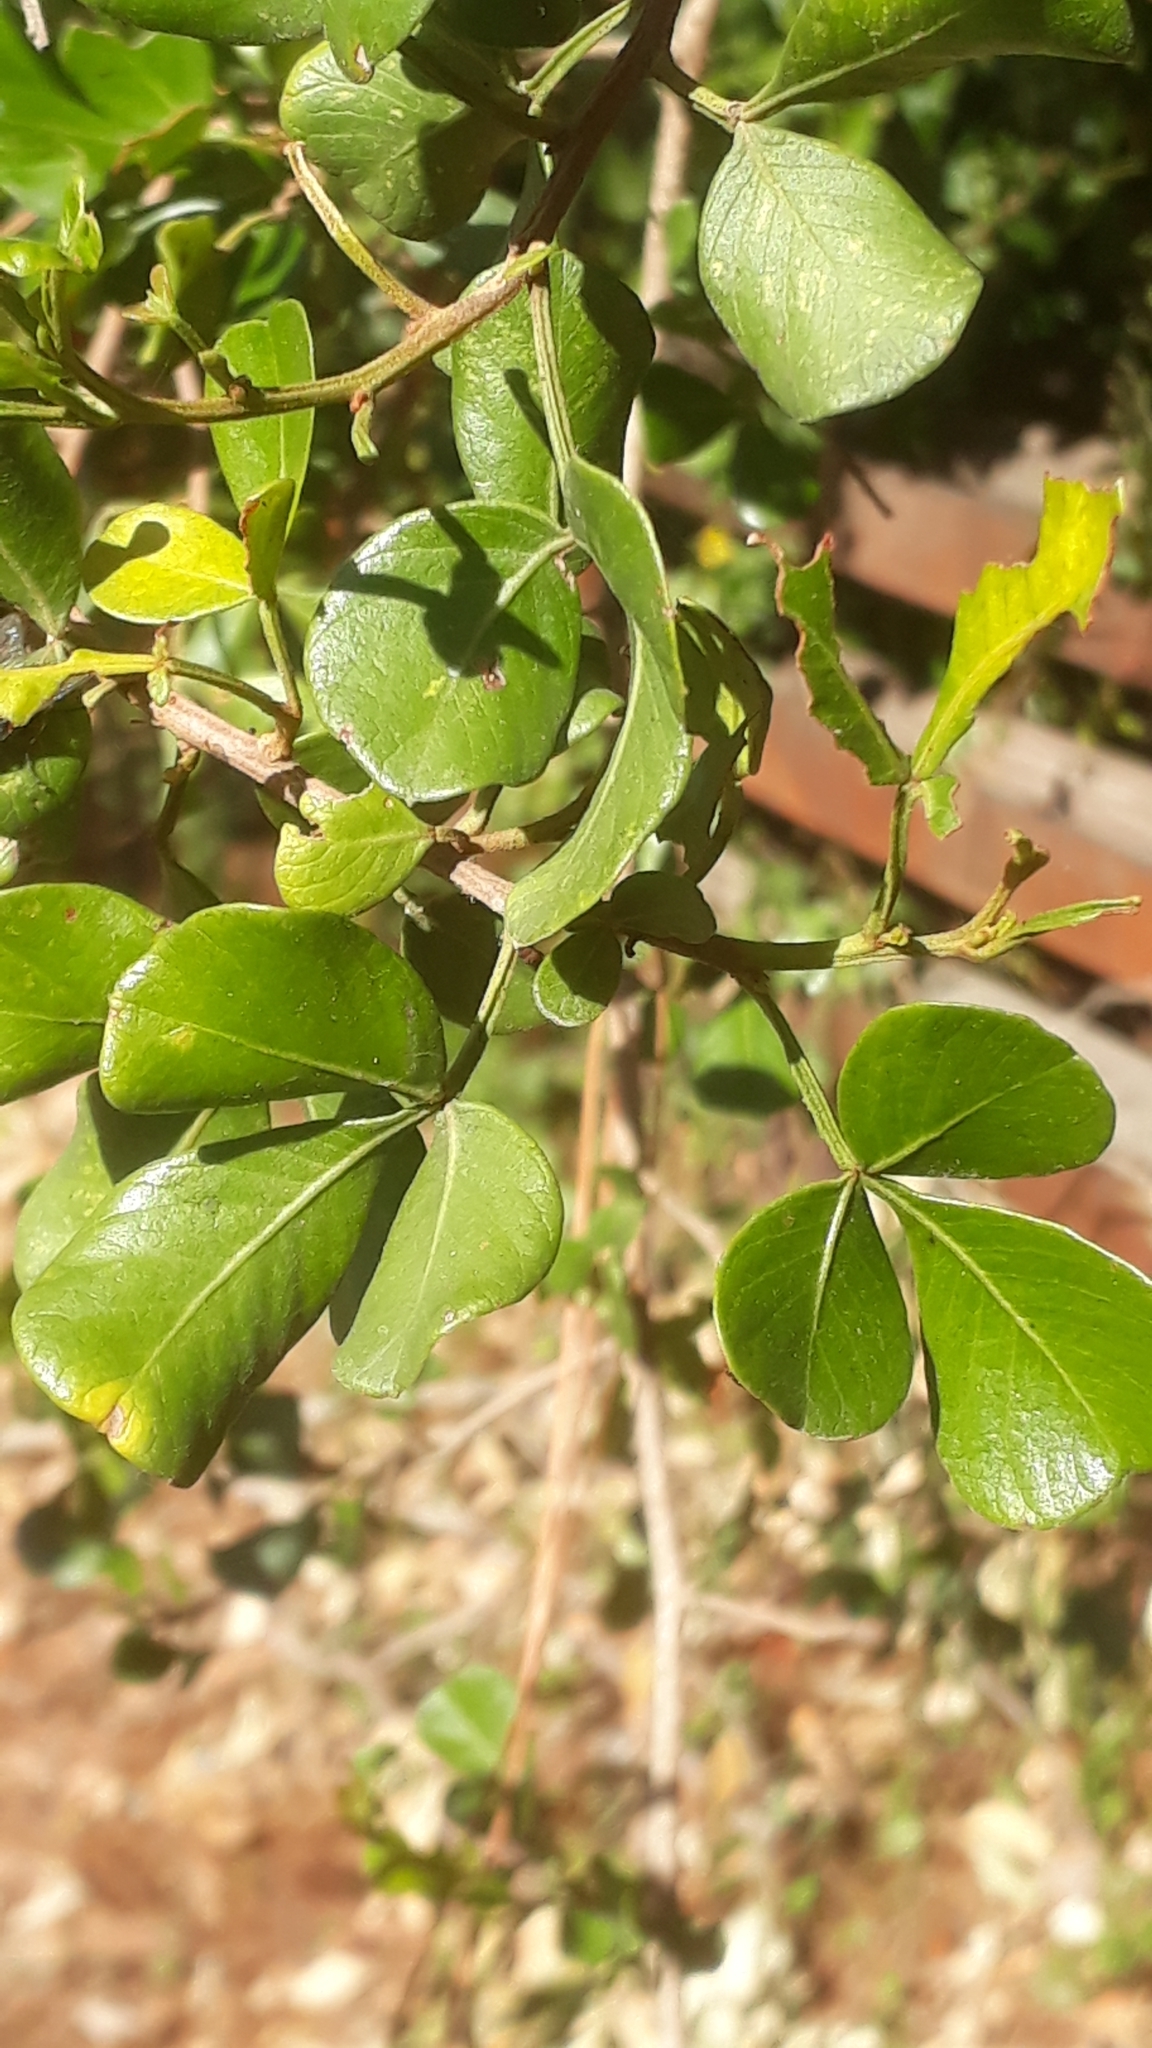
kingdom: Plantae
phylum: Tracheophyta
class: Magnoliopsida
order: Sapindales
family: Anacardiaceae
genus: Searsia
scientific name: Searsia glauca
